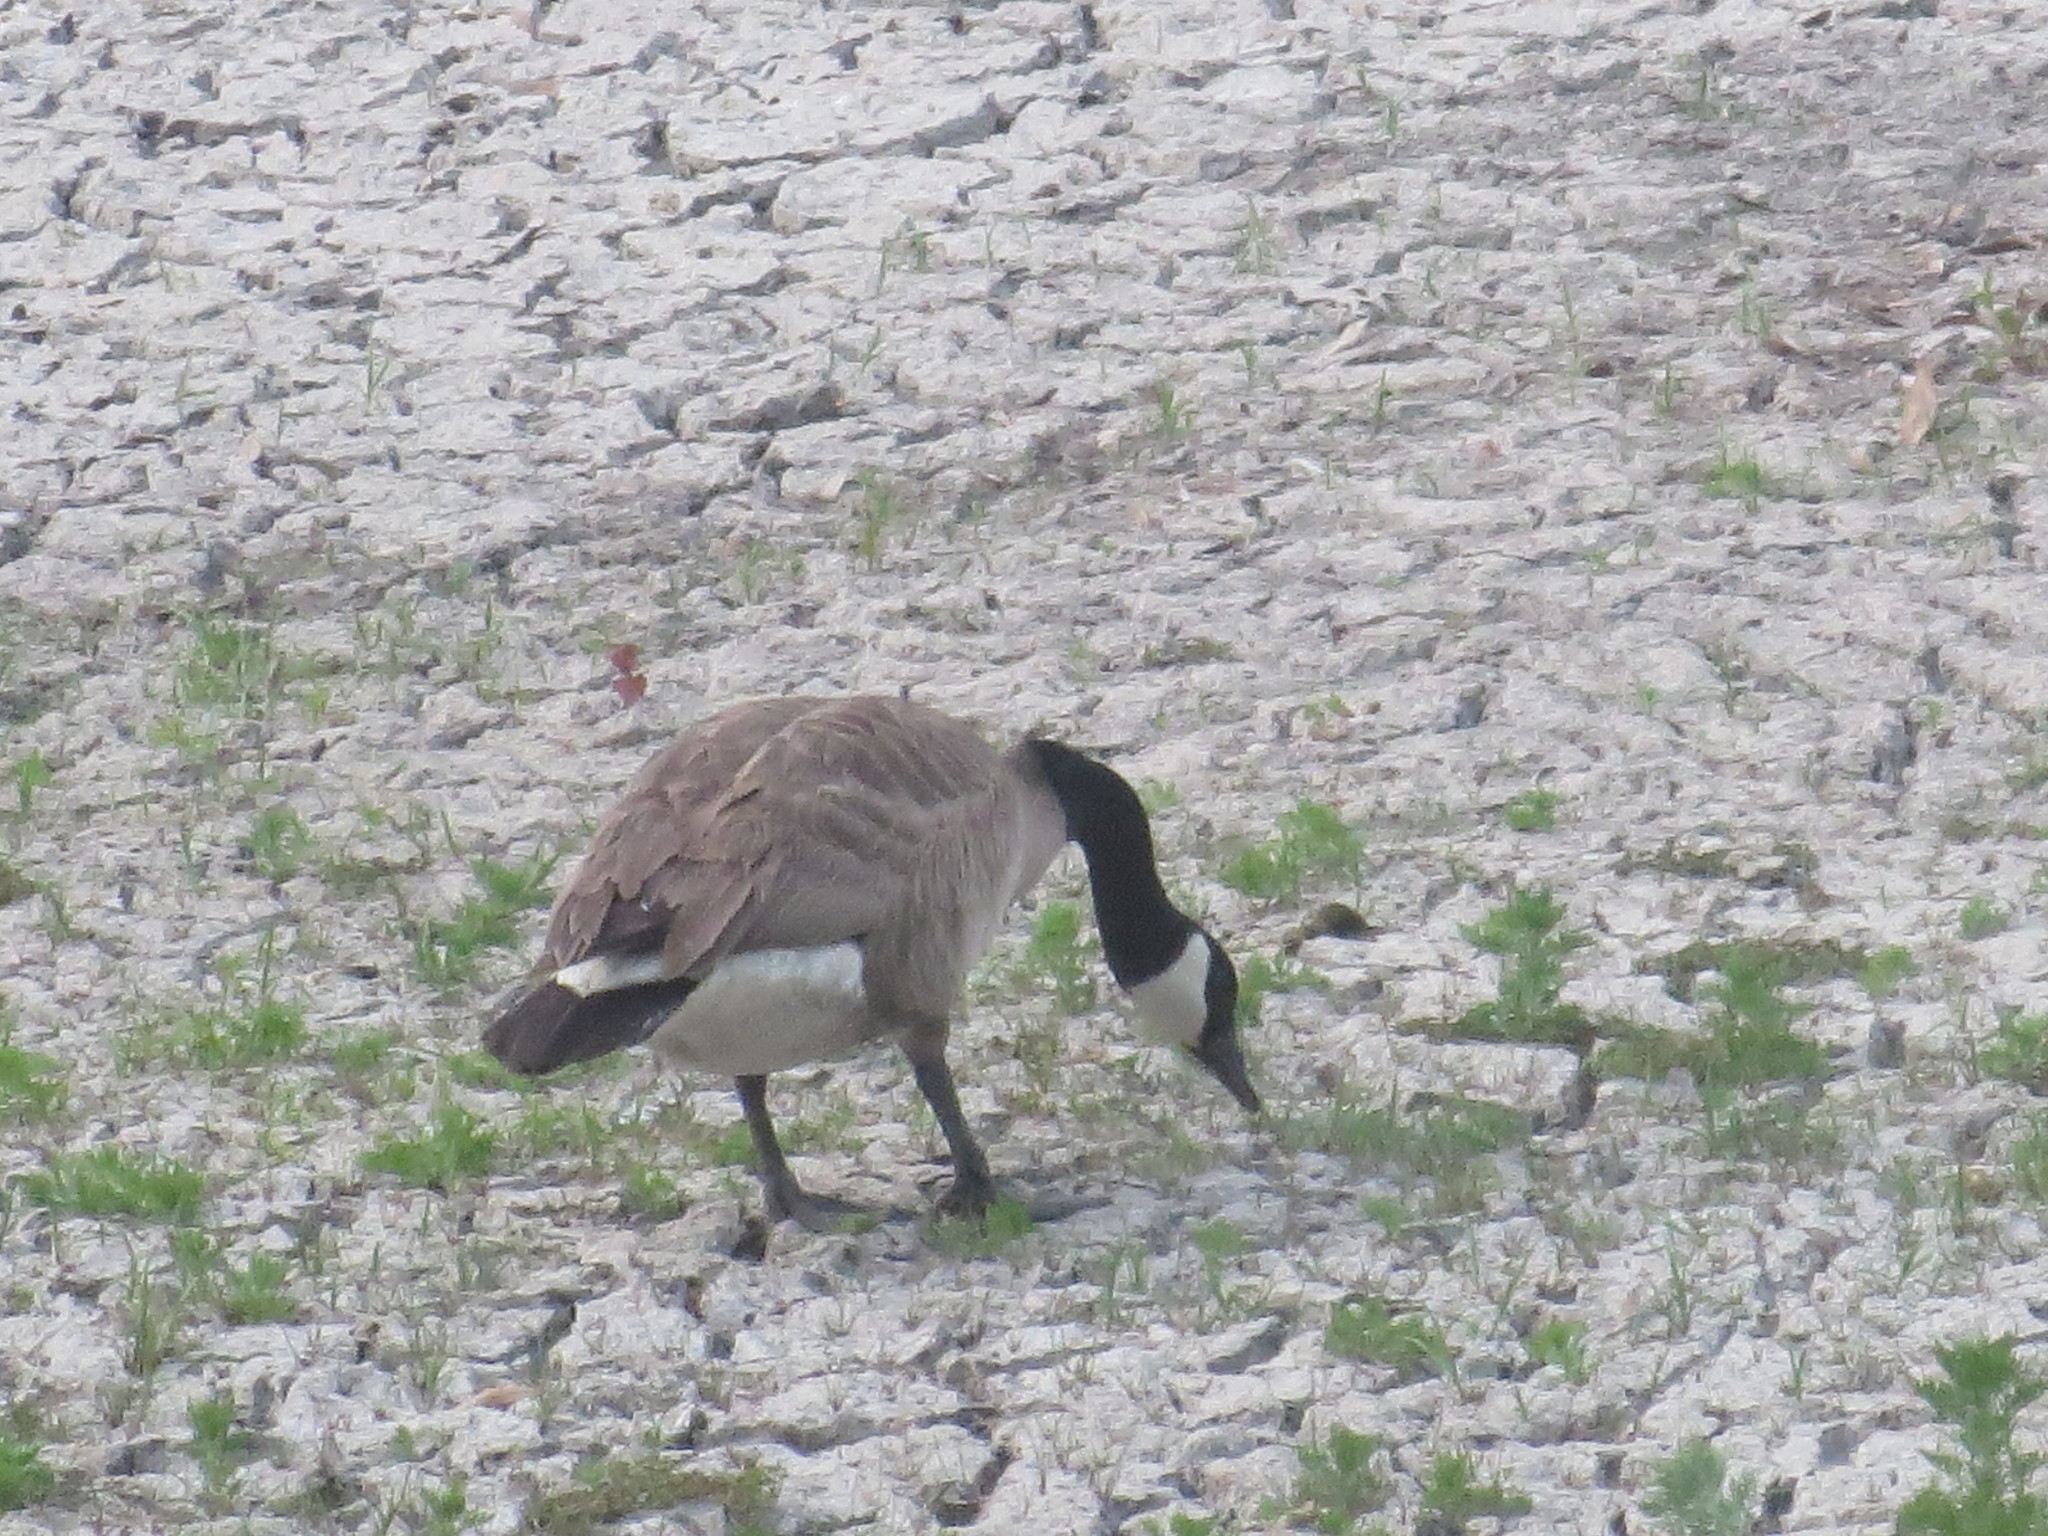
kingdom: Animalia
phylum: Chordata
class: Aves
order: Anseriformes
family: Anatidae
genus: Branta
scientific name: Branta canadensis
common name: Canada goose
